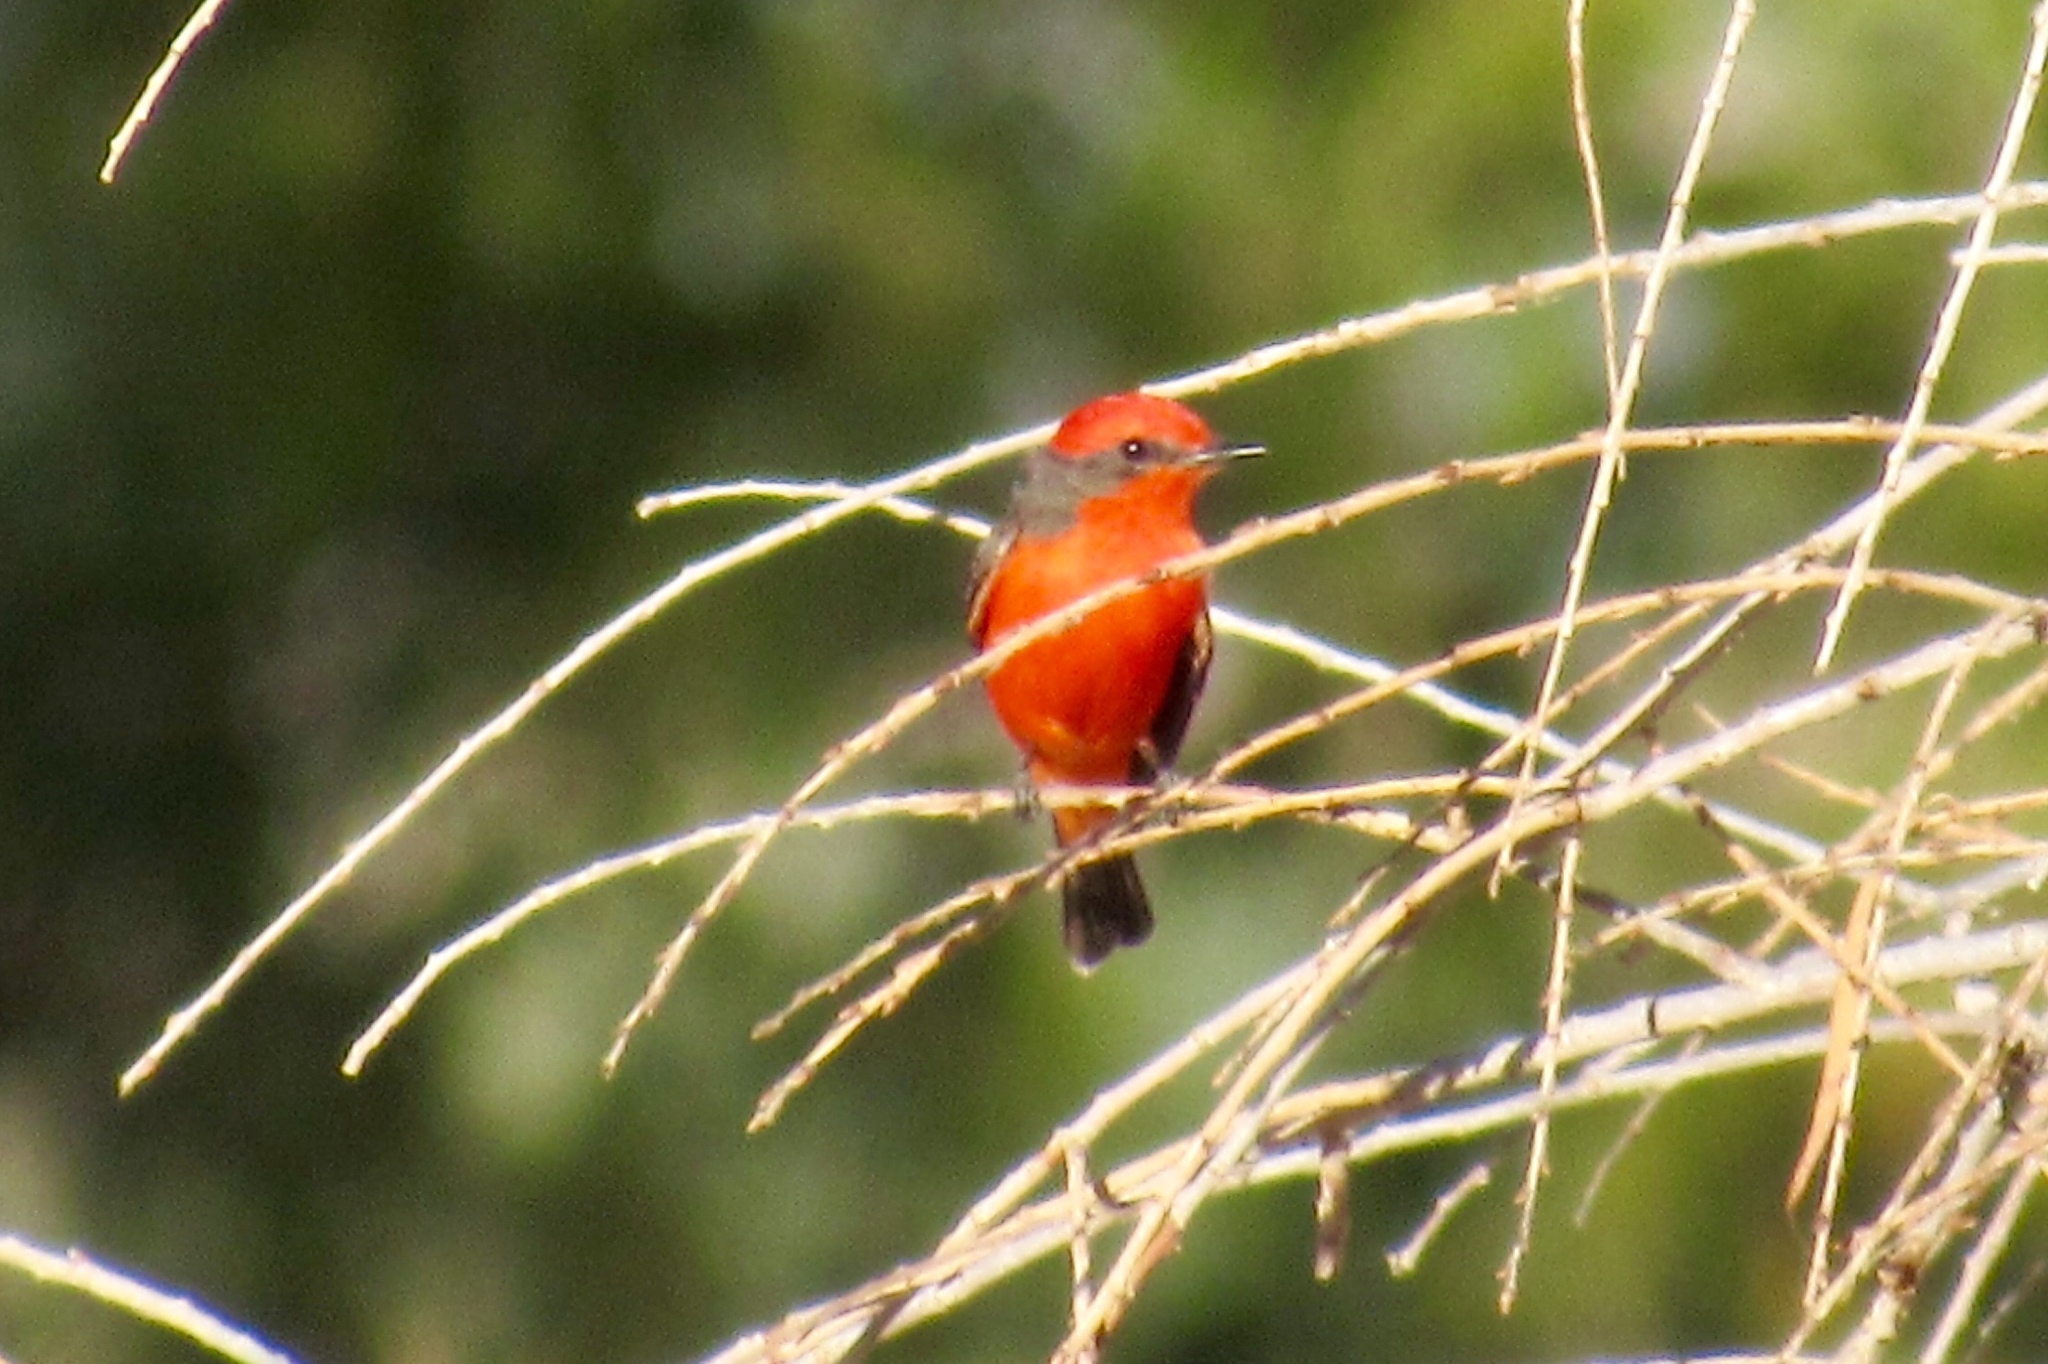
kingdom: Animalia
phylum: Chordata
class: Aves
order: Passeriformes
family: Tyrannidae
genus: Pyrocephalus
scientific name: Pyrocephalus rubinus
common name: Vermilion flycatcher
